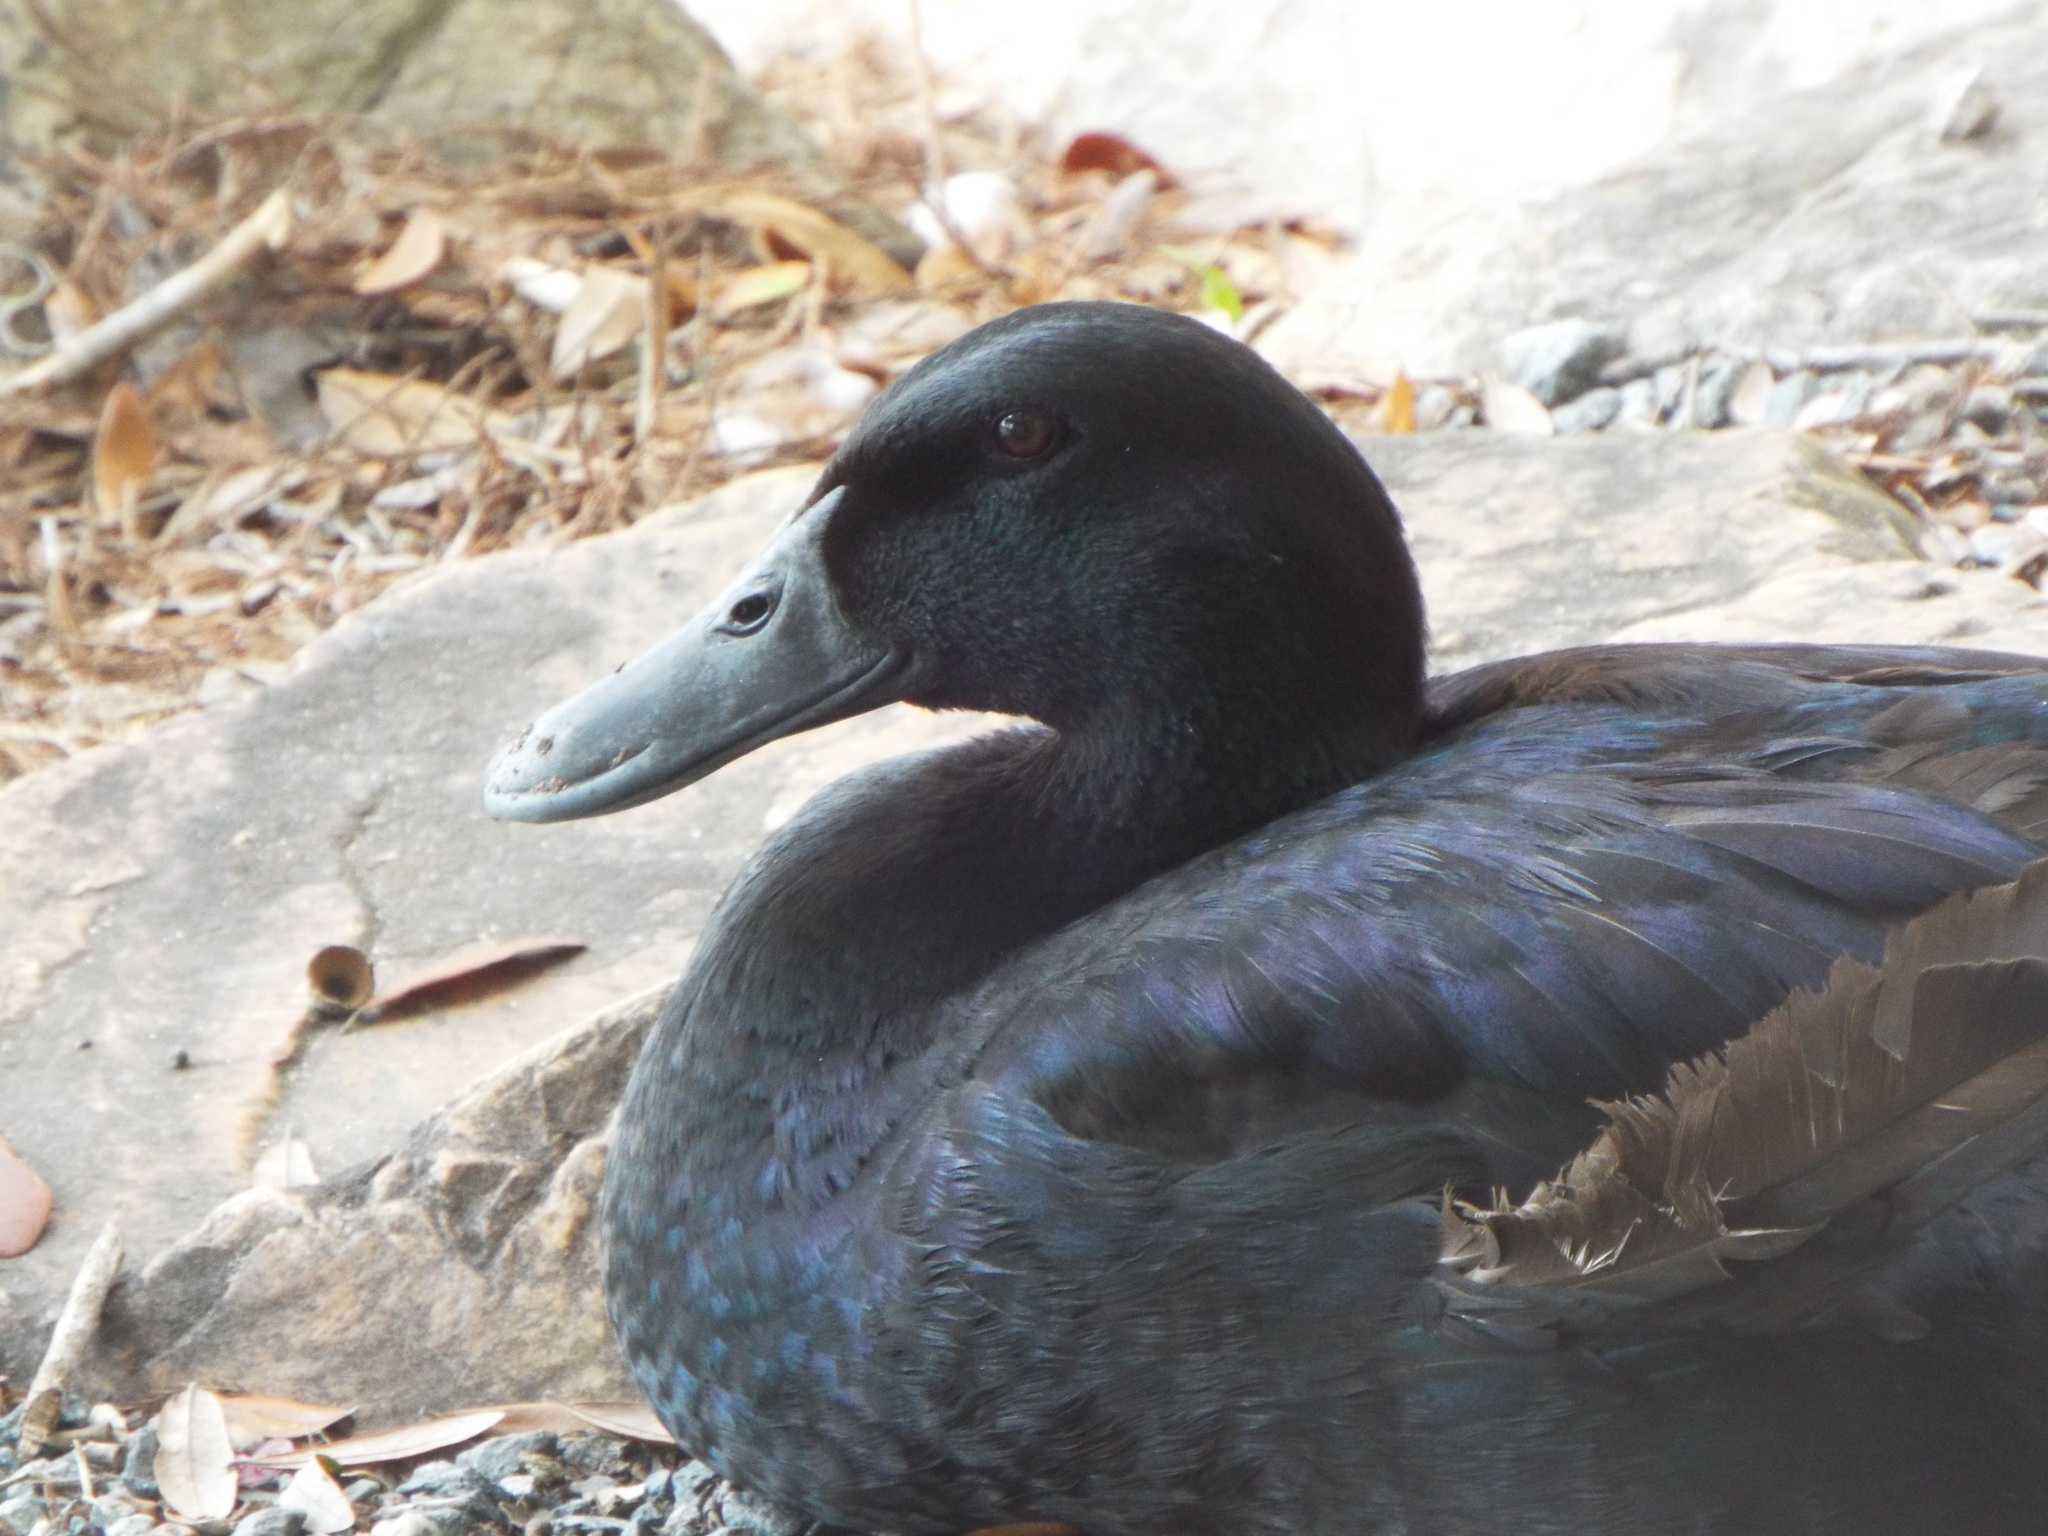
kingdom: Animalia
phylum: Chordata
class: Aves
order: Anseriformes
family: Anatidae
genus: Anas
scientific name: Anas platyrhynchos
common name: Mallard
